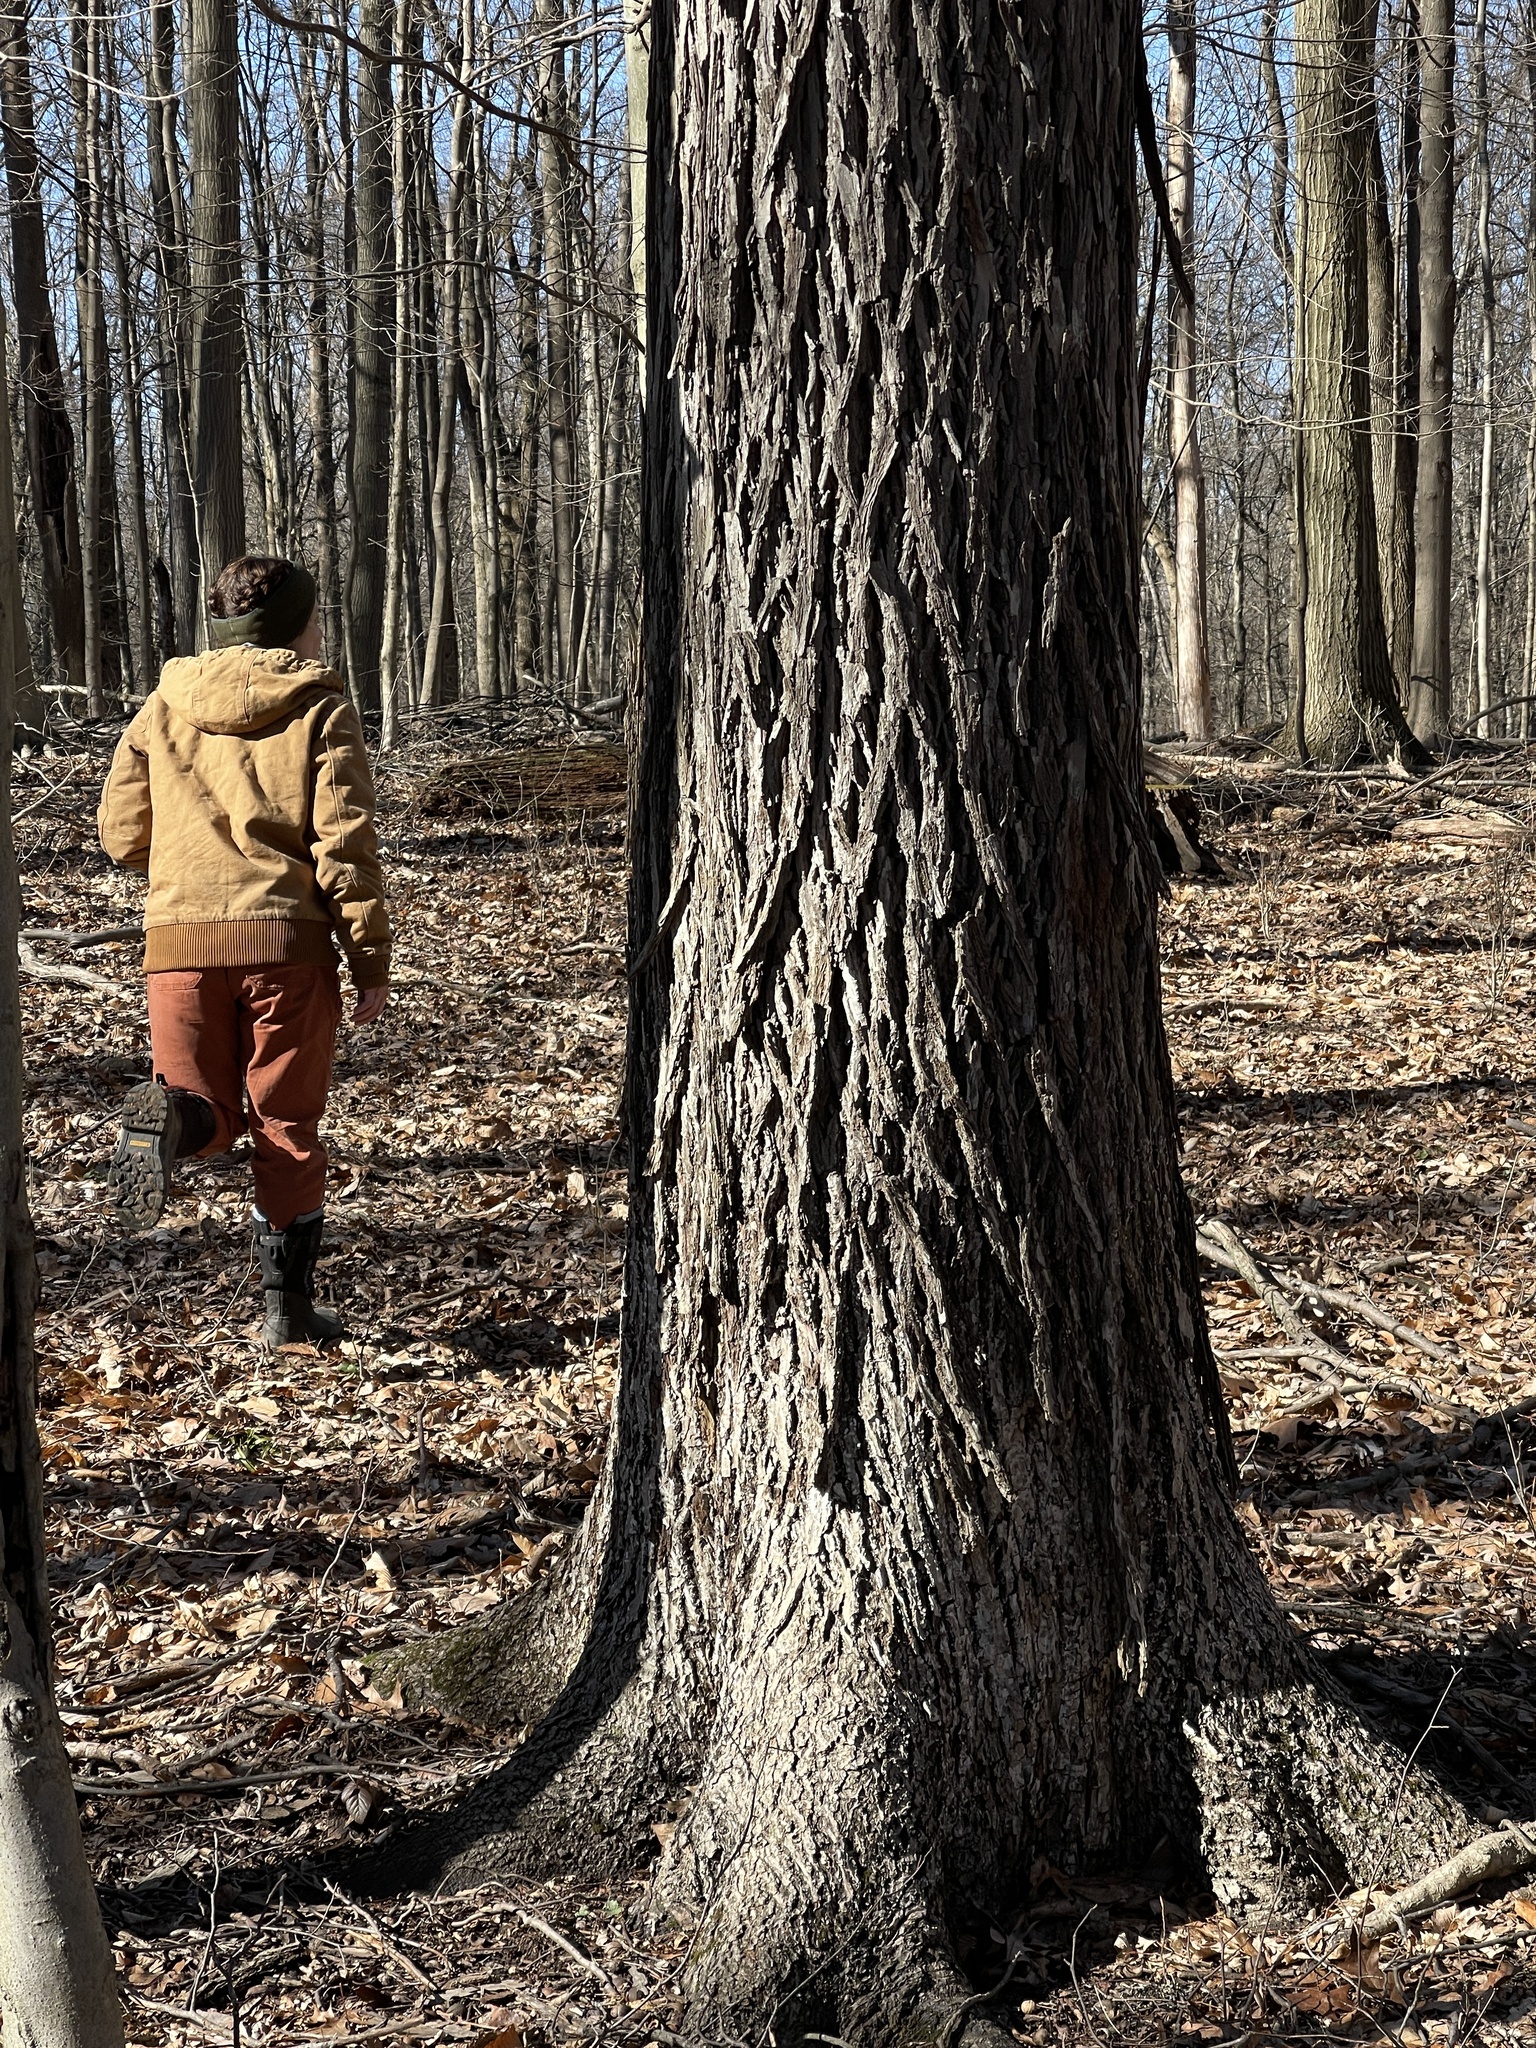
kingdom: Plantae
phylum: Tracheophyta
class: Magnoliopsida
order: Fagales
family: Juglandaceae
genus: Carya
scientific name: Carya glabra
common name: Pignut hickory
